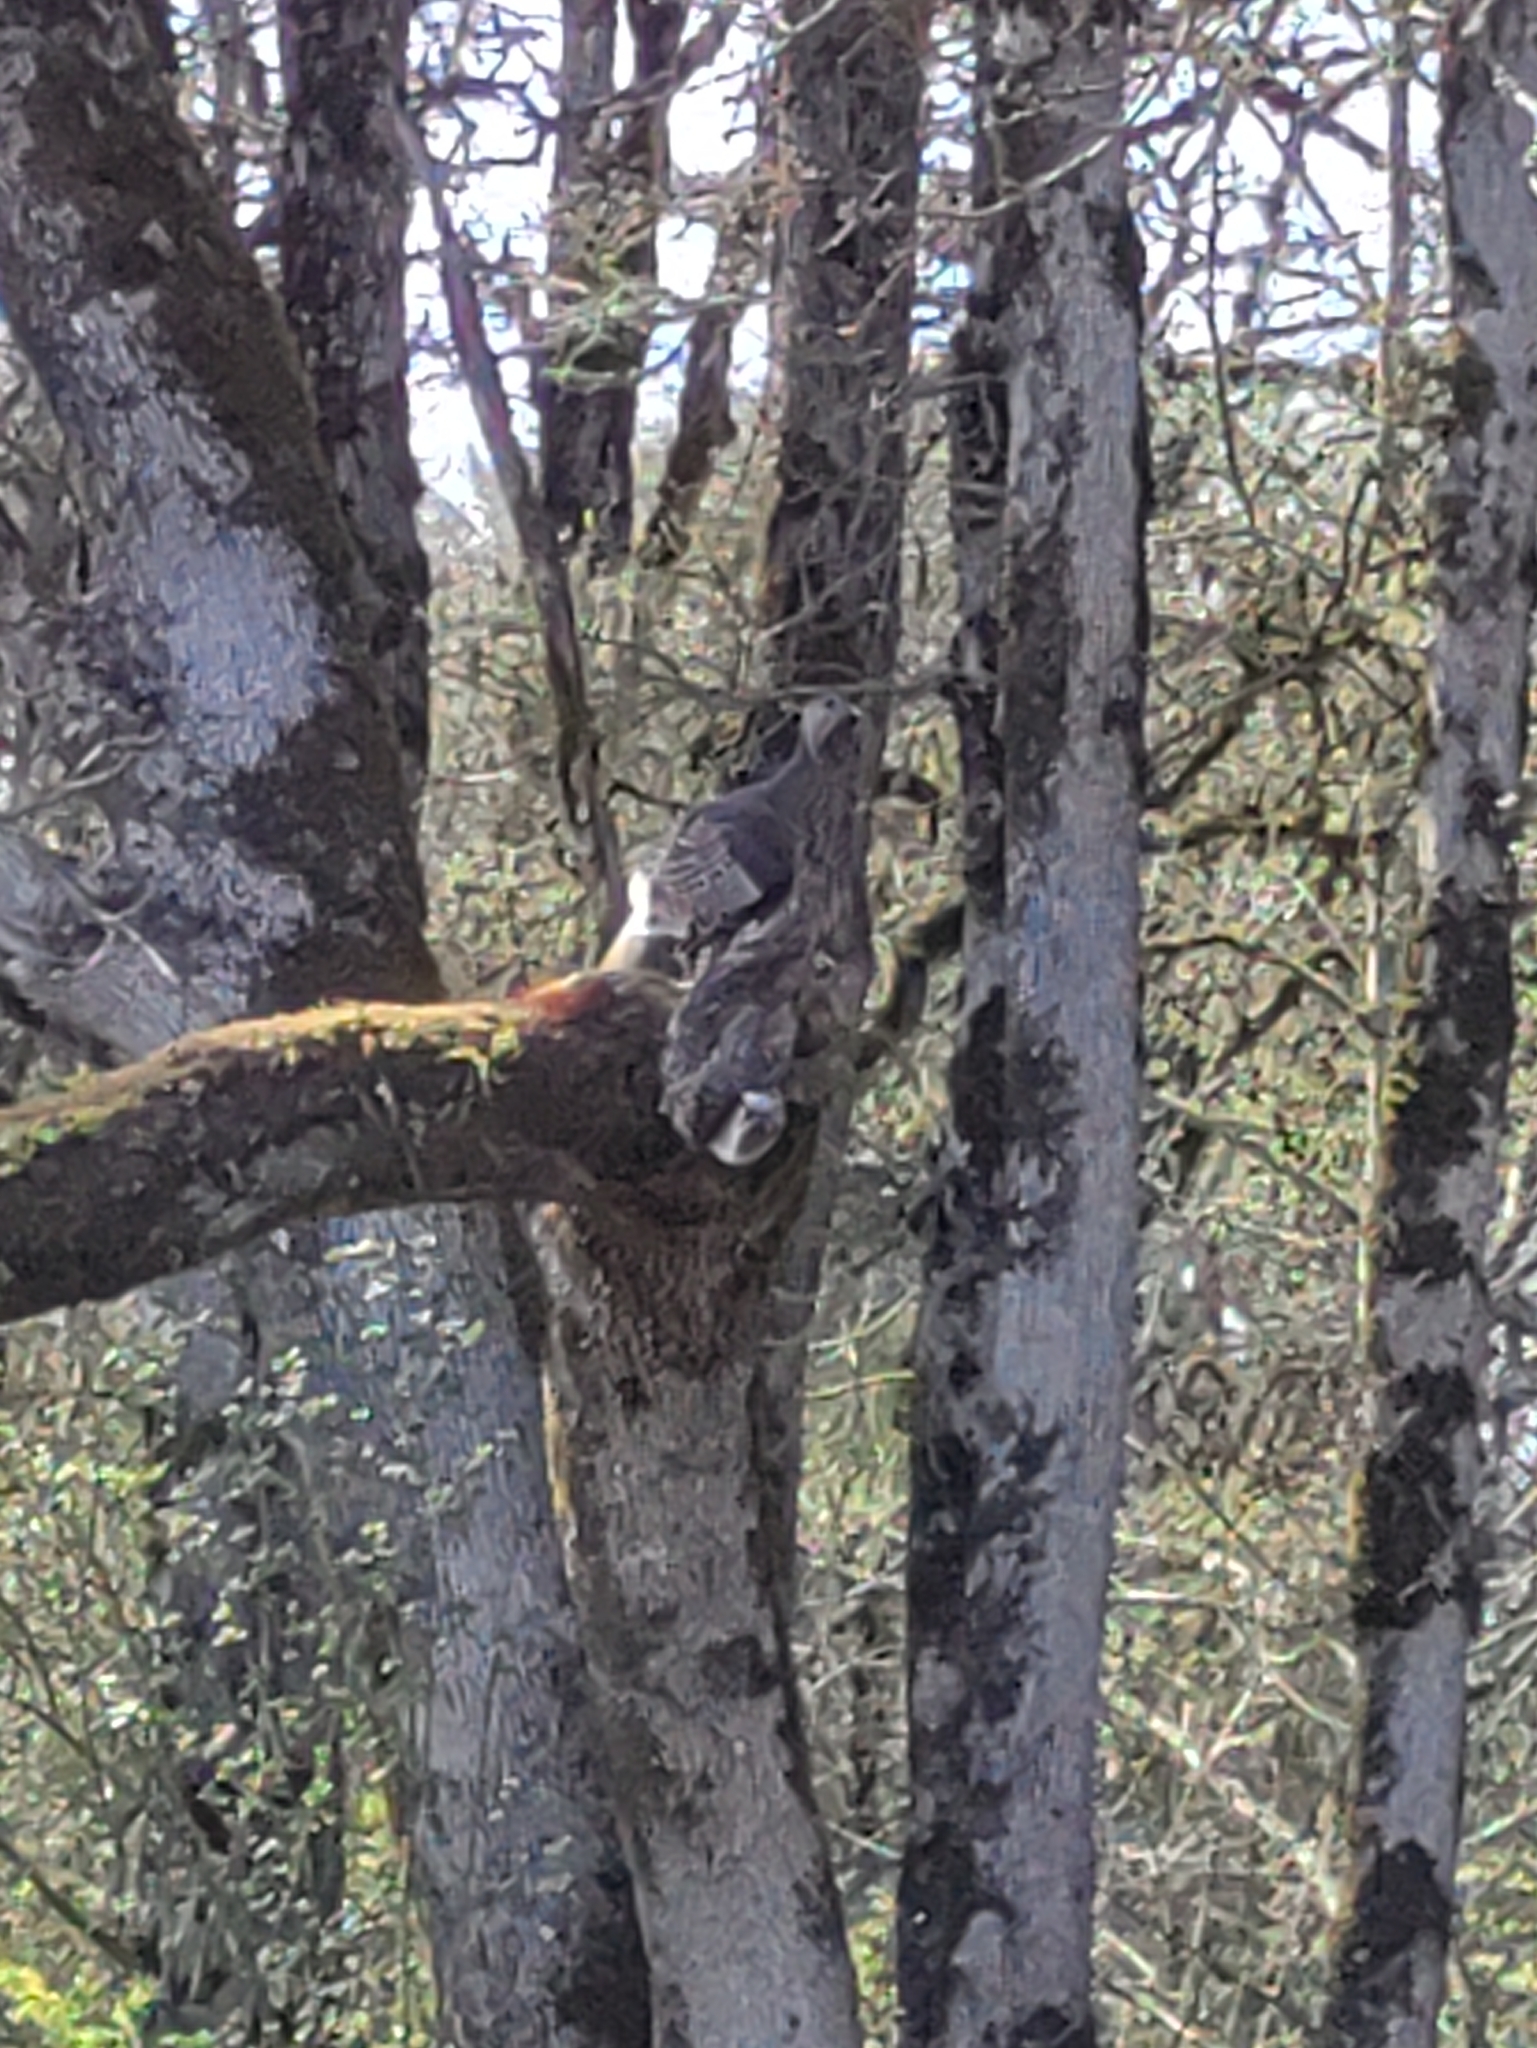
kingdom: Animalia
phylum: Chordata
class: Aves
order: Galliformes
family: Phasianidae
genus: Meleagris
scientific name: Meleagris gallopavo
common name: Wild turkey
